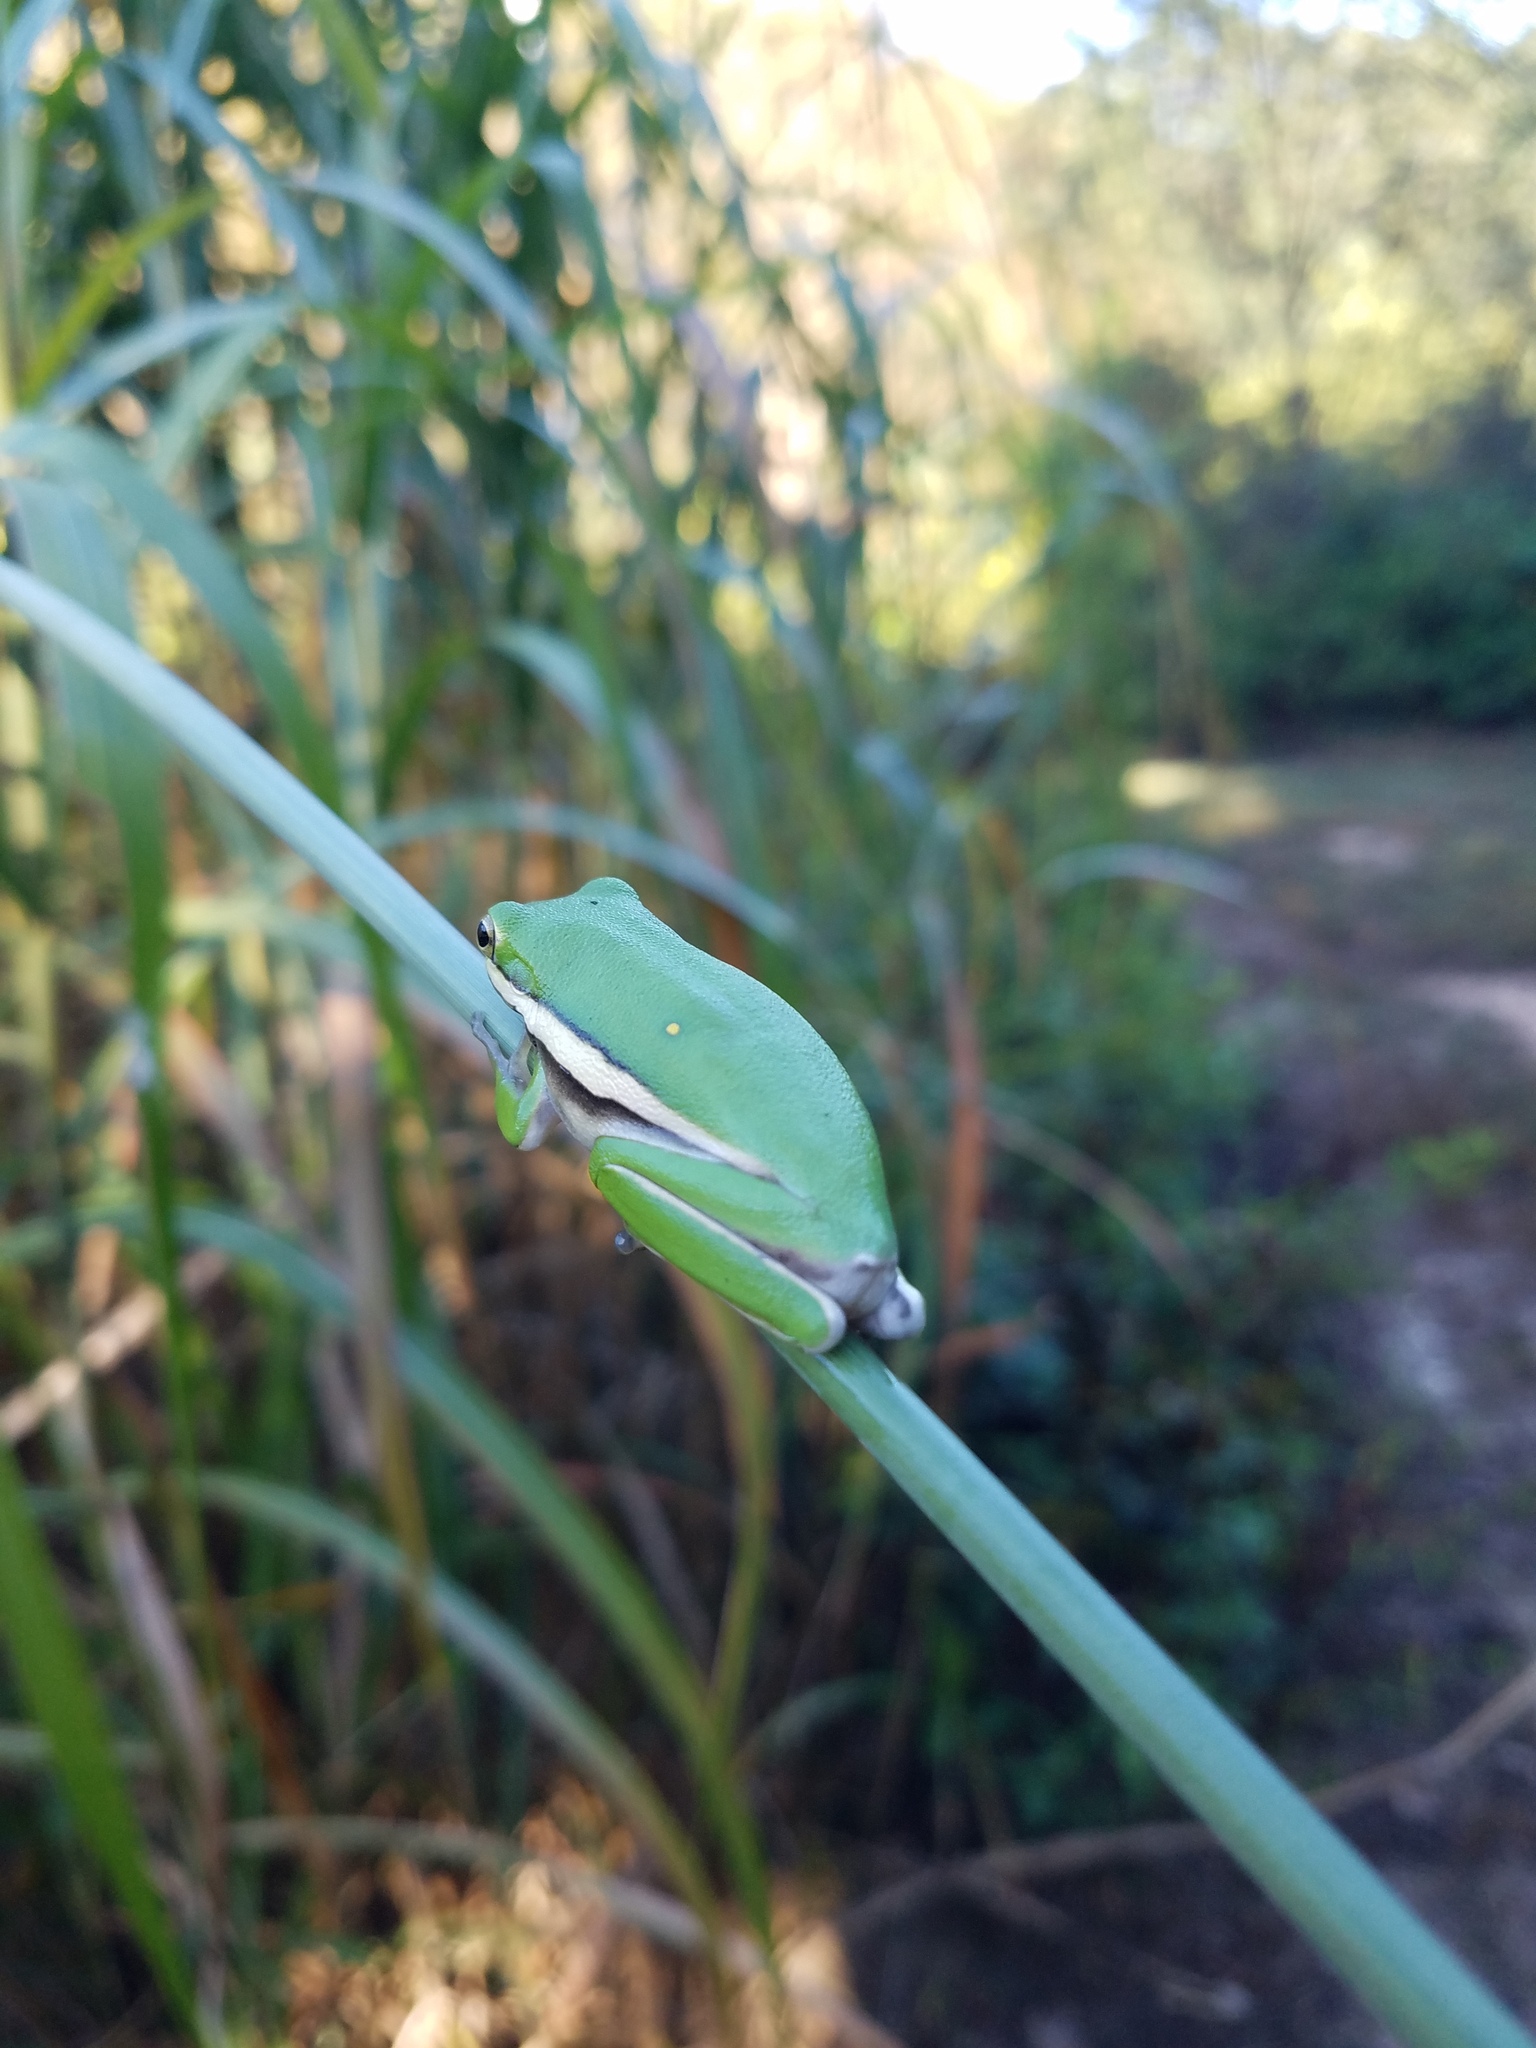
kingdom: Animalia
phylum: Chordata
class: Amphibia
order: Anura
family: Hylidae
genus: Dryophytes
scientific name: Dryophytes cinereus
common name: Green treefrog
